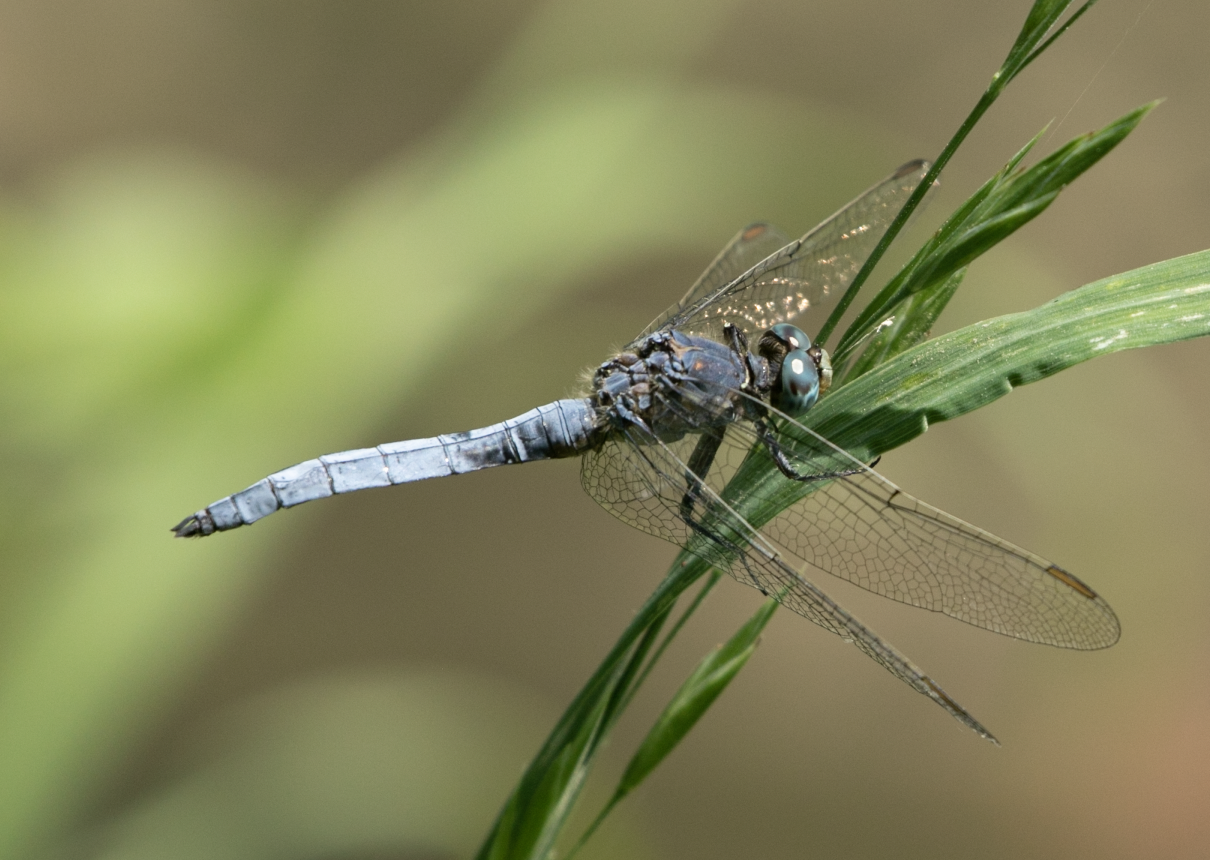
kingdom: Animalia
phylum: Arthropoda
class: Insecta
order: Odonata
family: Libellulidae
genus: Orthetrum
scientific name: Orthetrum coerulescens
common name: Keeled skimmer
